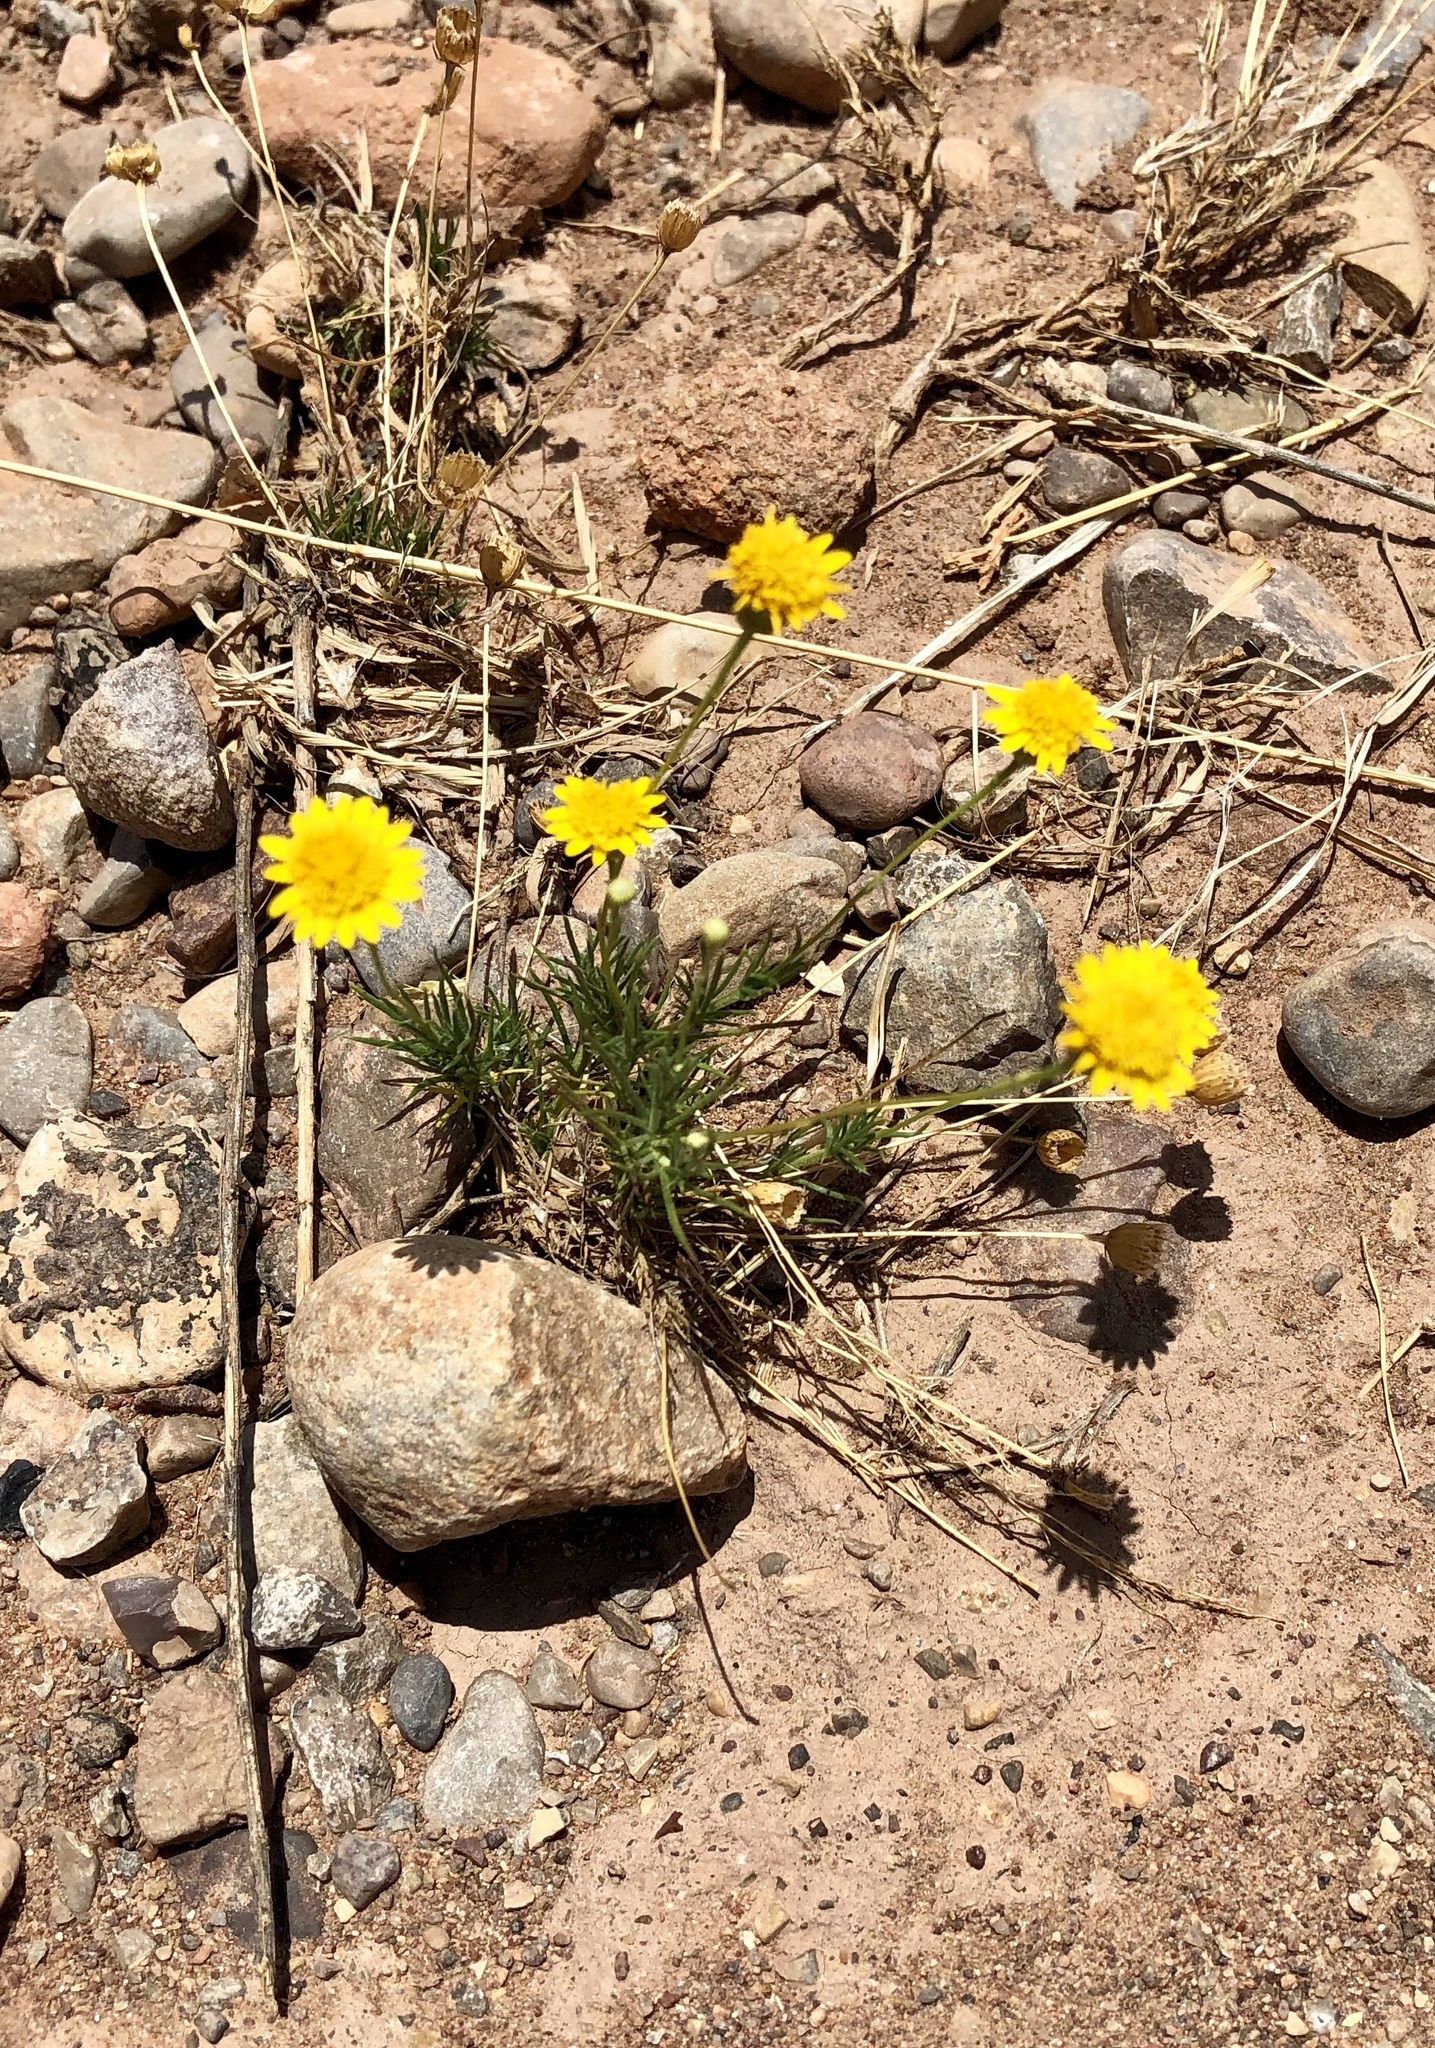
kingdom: Plantae
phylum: Tracheophyta
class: Magnoliopsida
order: Asterales
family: Asteraceae
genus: Thymophylla
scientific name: Thymophylla pentachaeta
